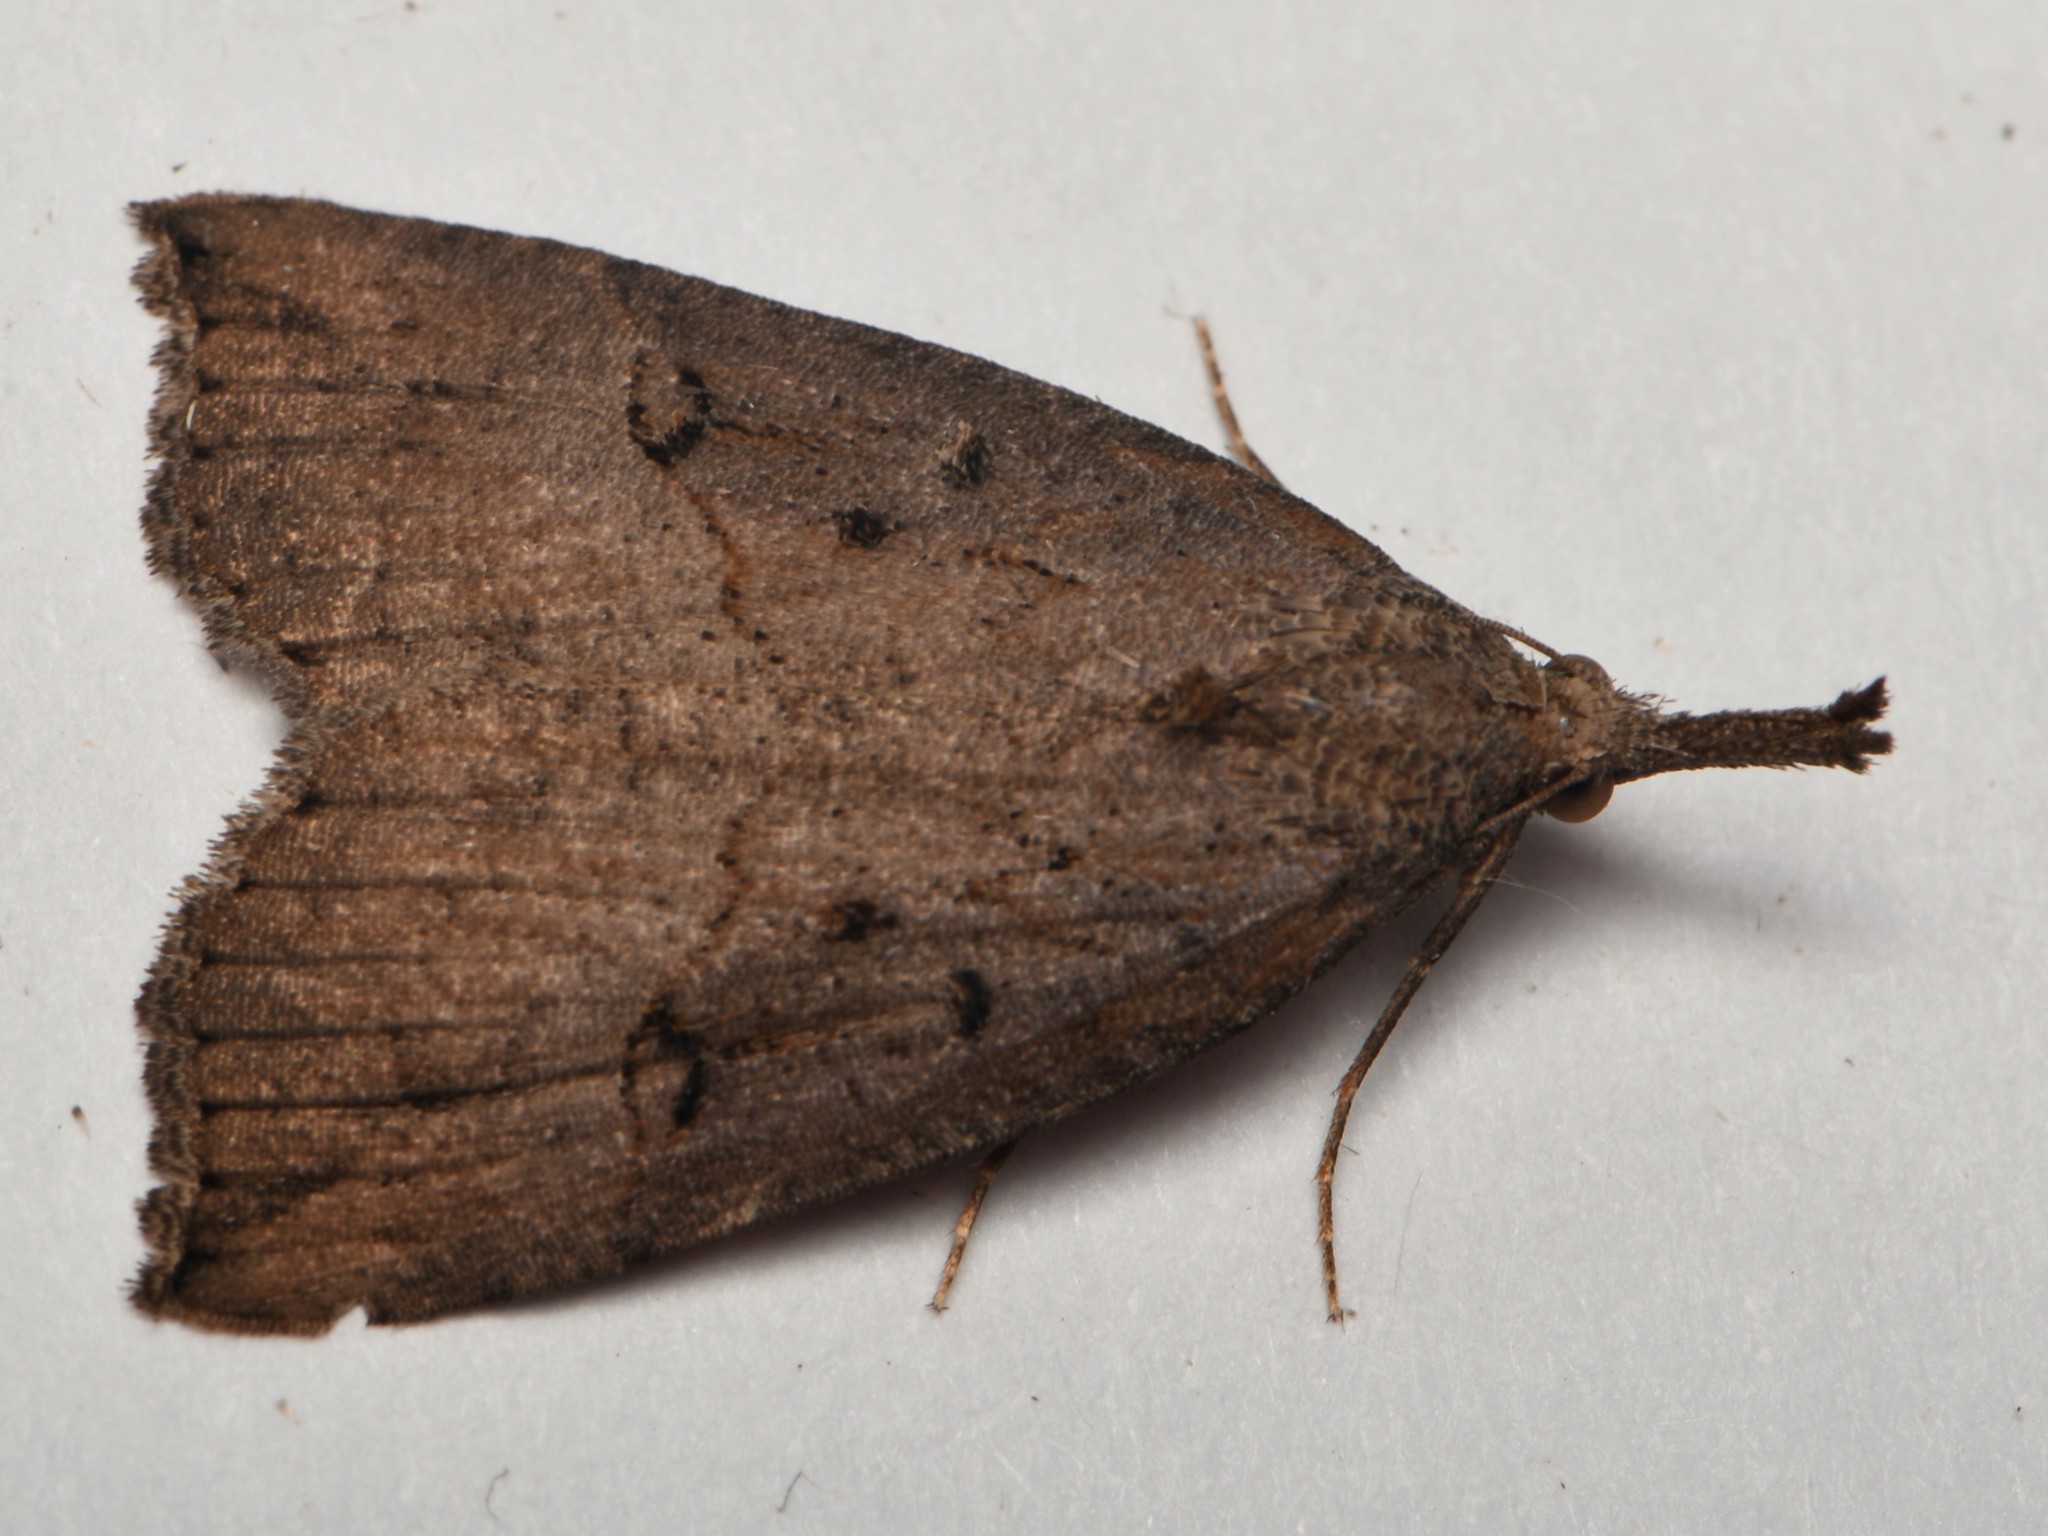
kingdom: Animalia
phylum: Arthropoda
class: Insecta
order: Lepidoptera
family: Erebidae
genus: Hypena
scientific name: Hypena rostralis
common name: Buttoned snout
